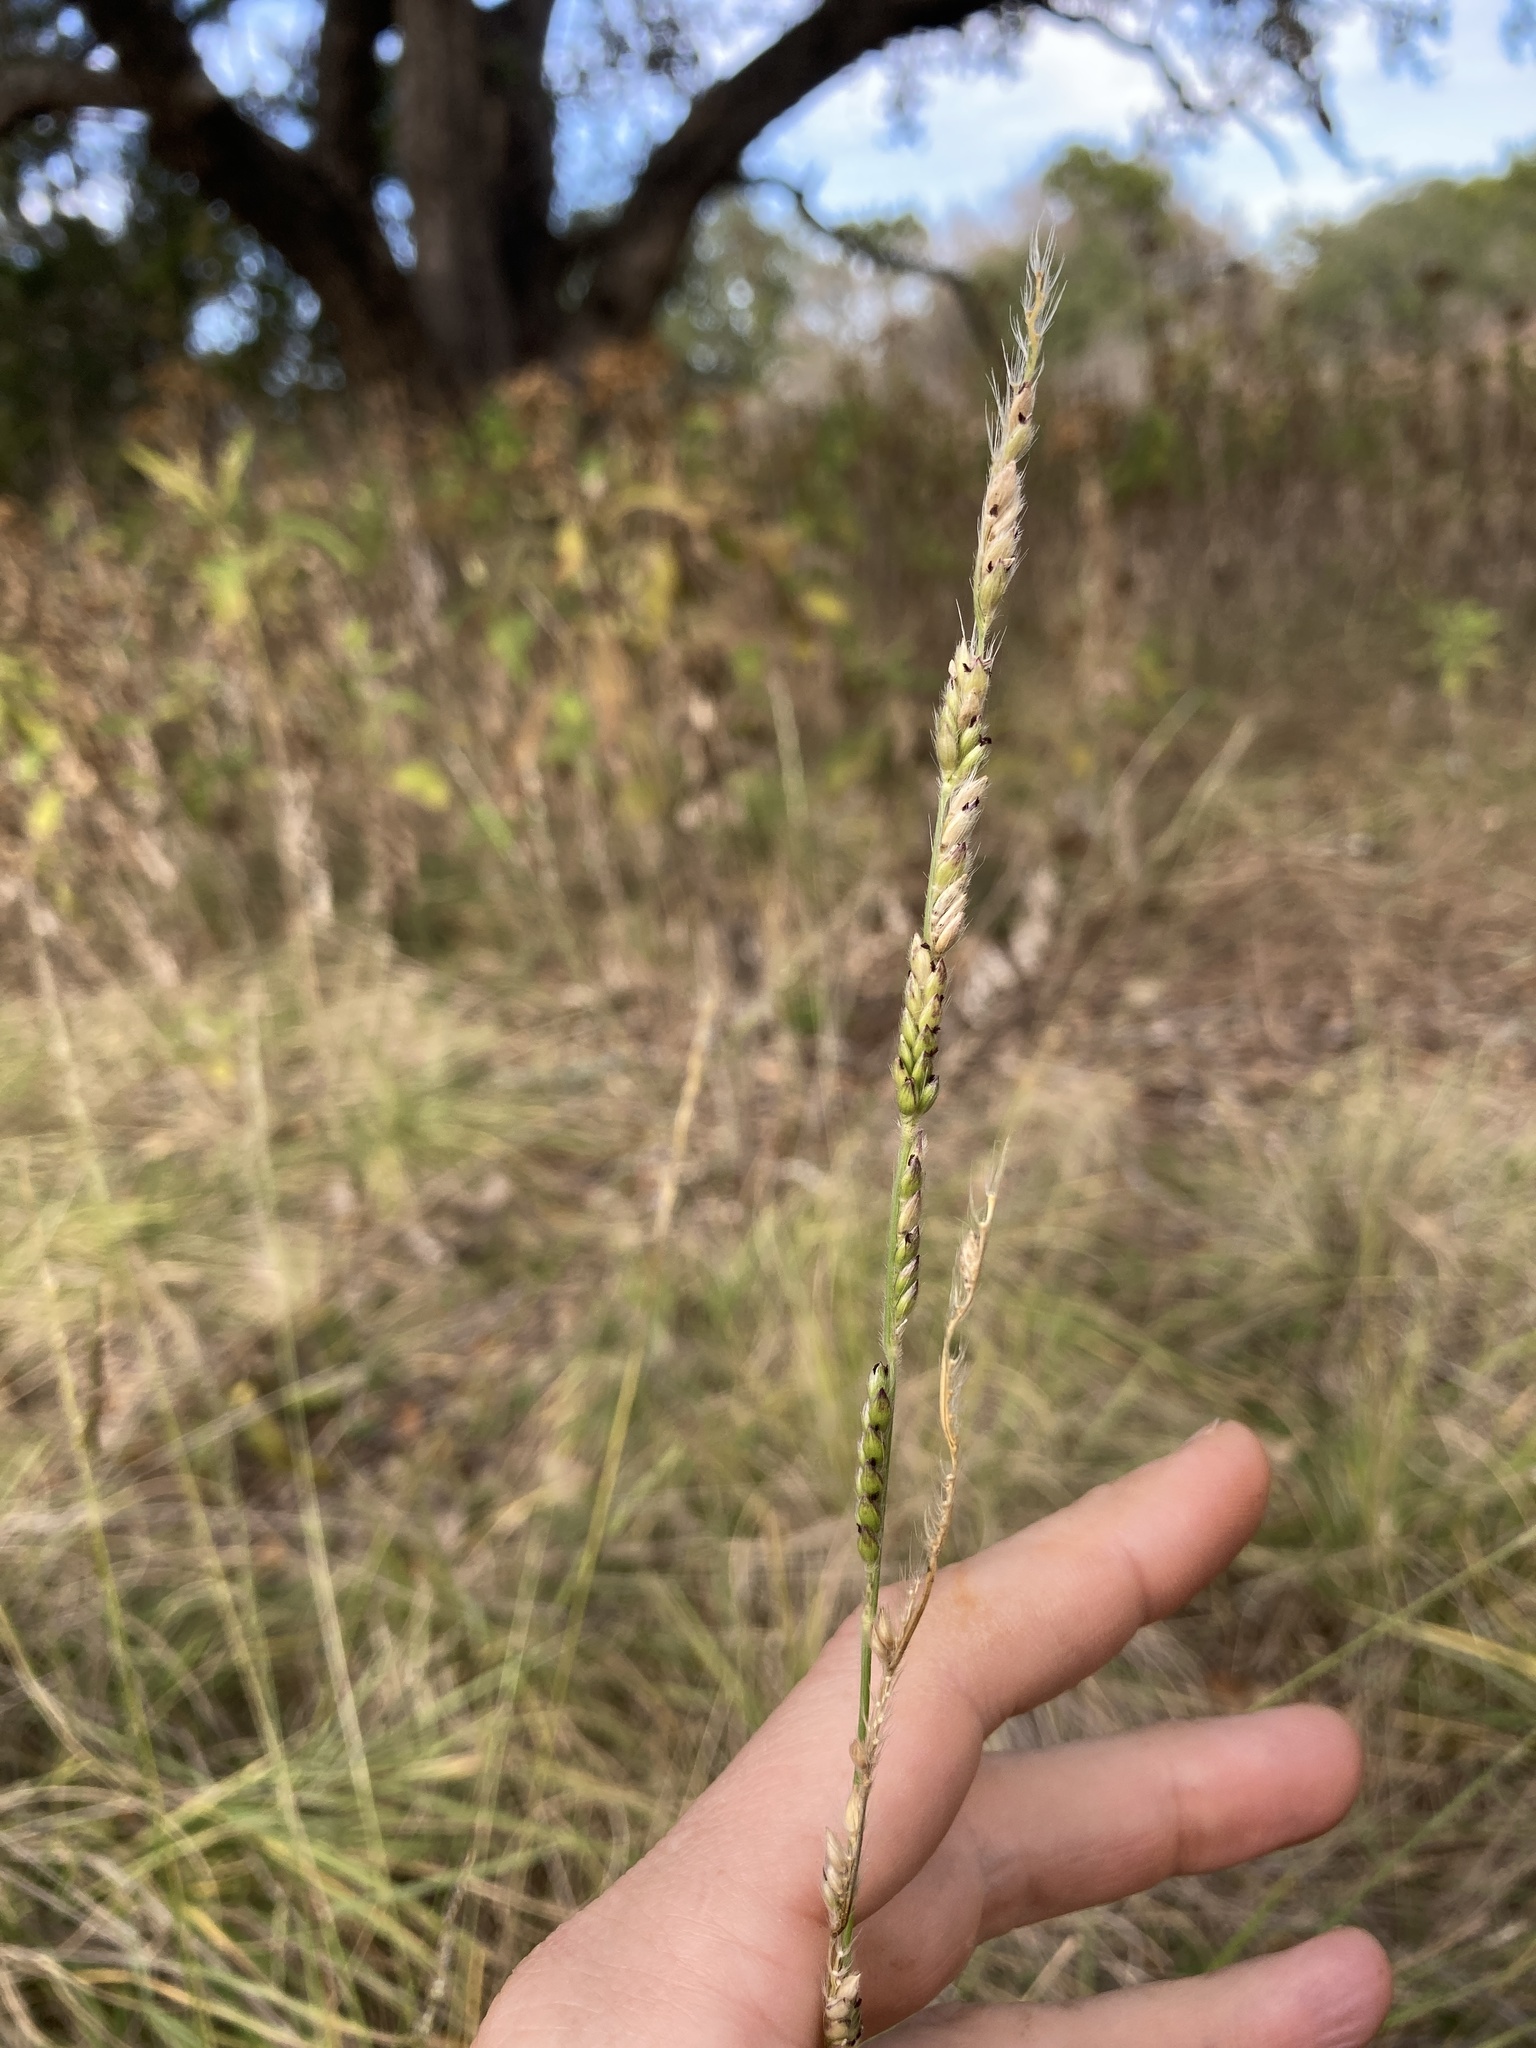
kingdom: Plantae
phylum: Tracheophyta
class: Liliopsida
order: Poales
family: Poaceae
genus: Eriochloa
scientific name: Eriochloa sericea
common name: Texas cup grass
